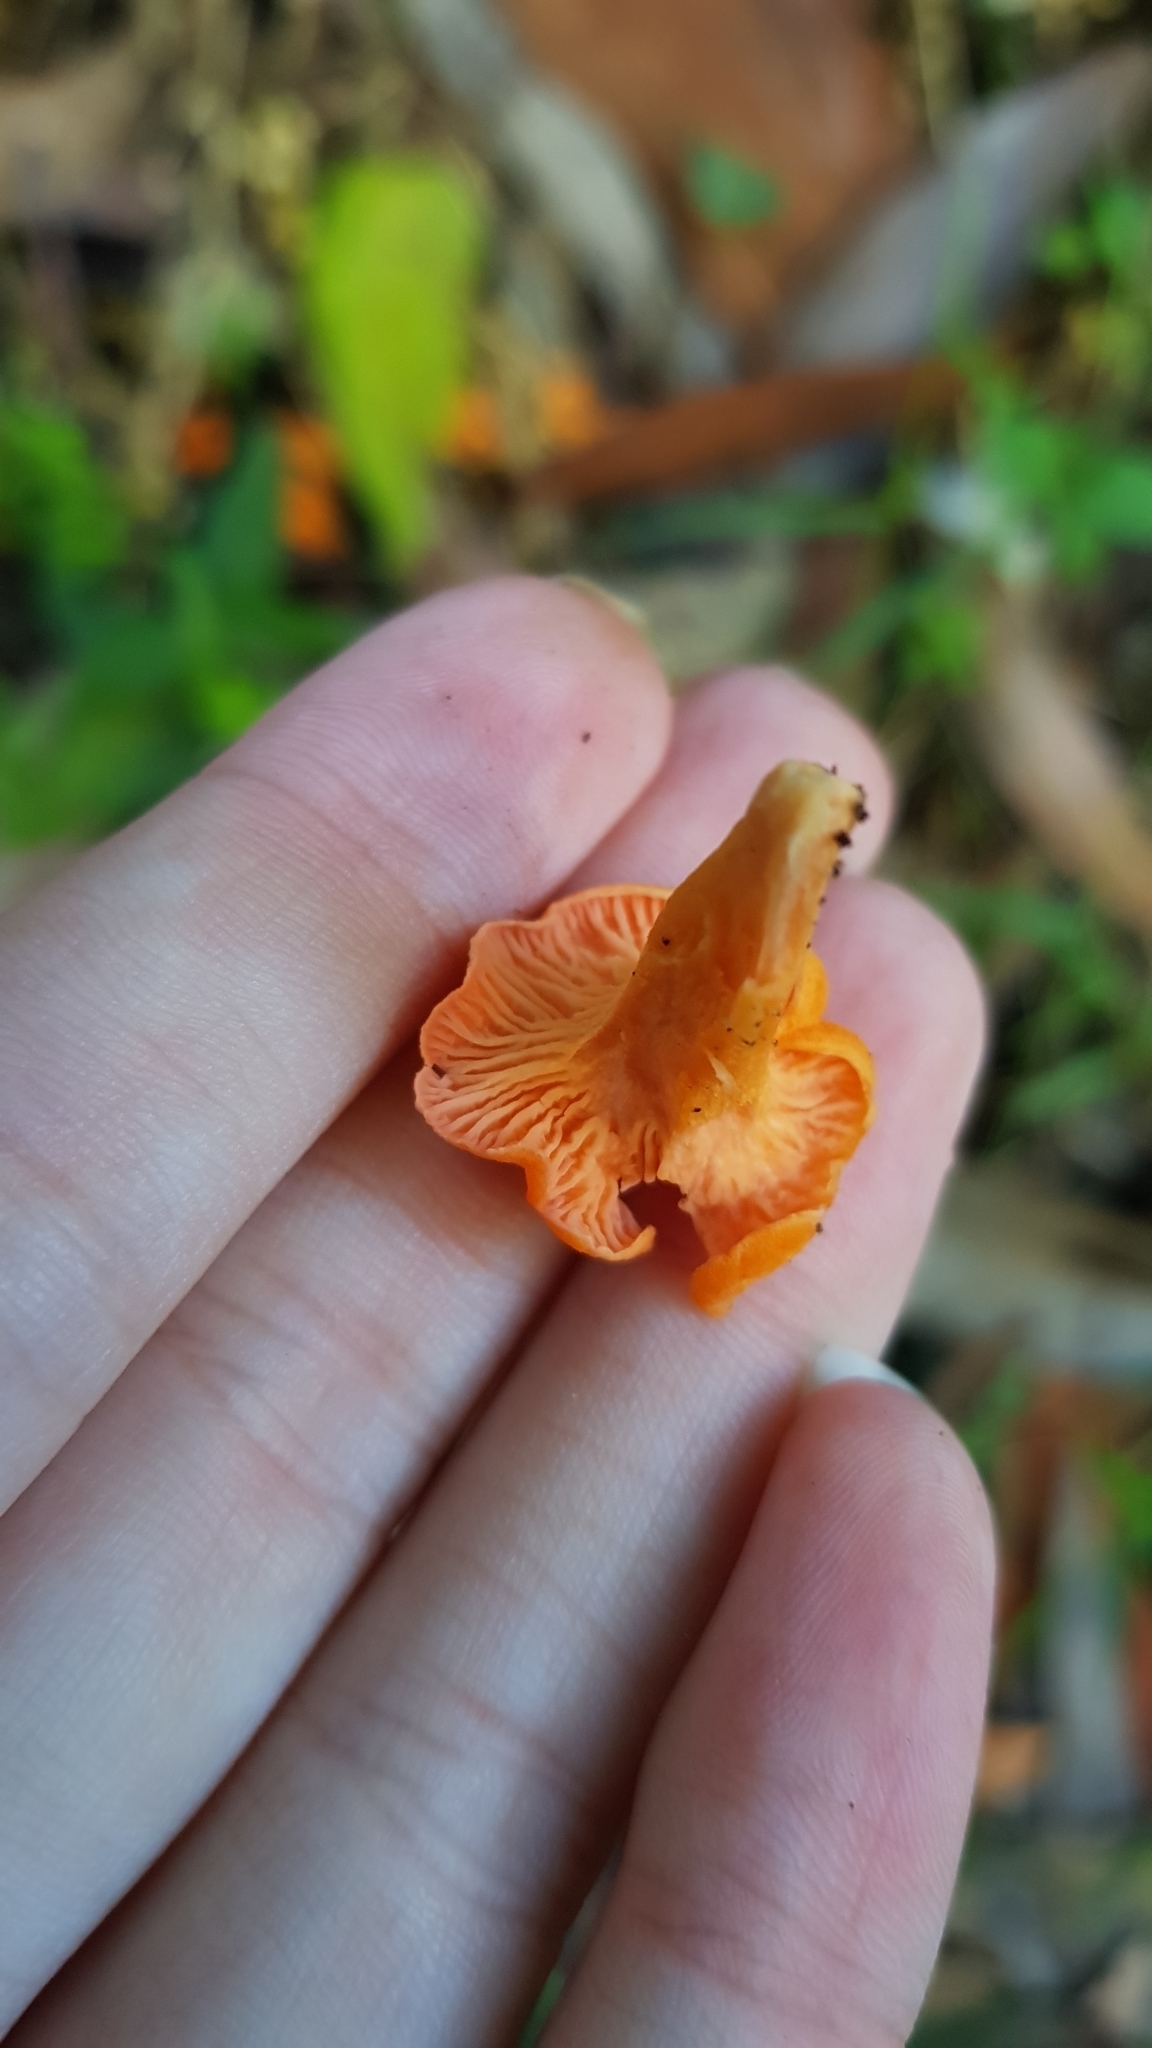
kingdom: Fungi
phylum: Basidiomycota
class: Agaricomycetes
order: Cantharellales
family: Hydnaceae
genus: Cantharellus
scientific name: Cantharellus
